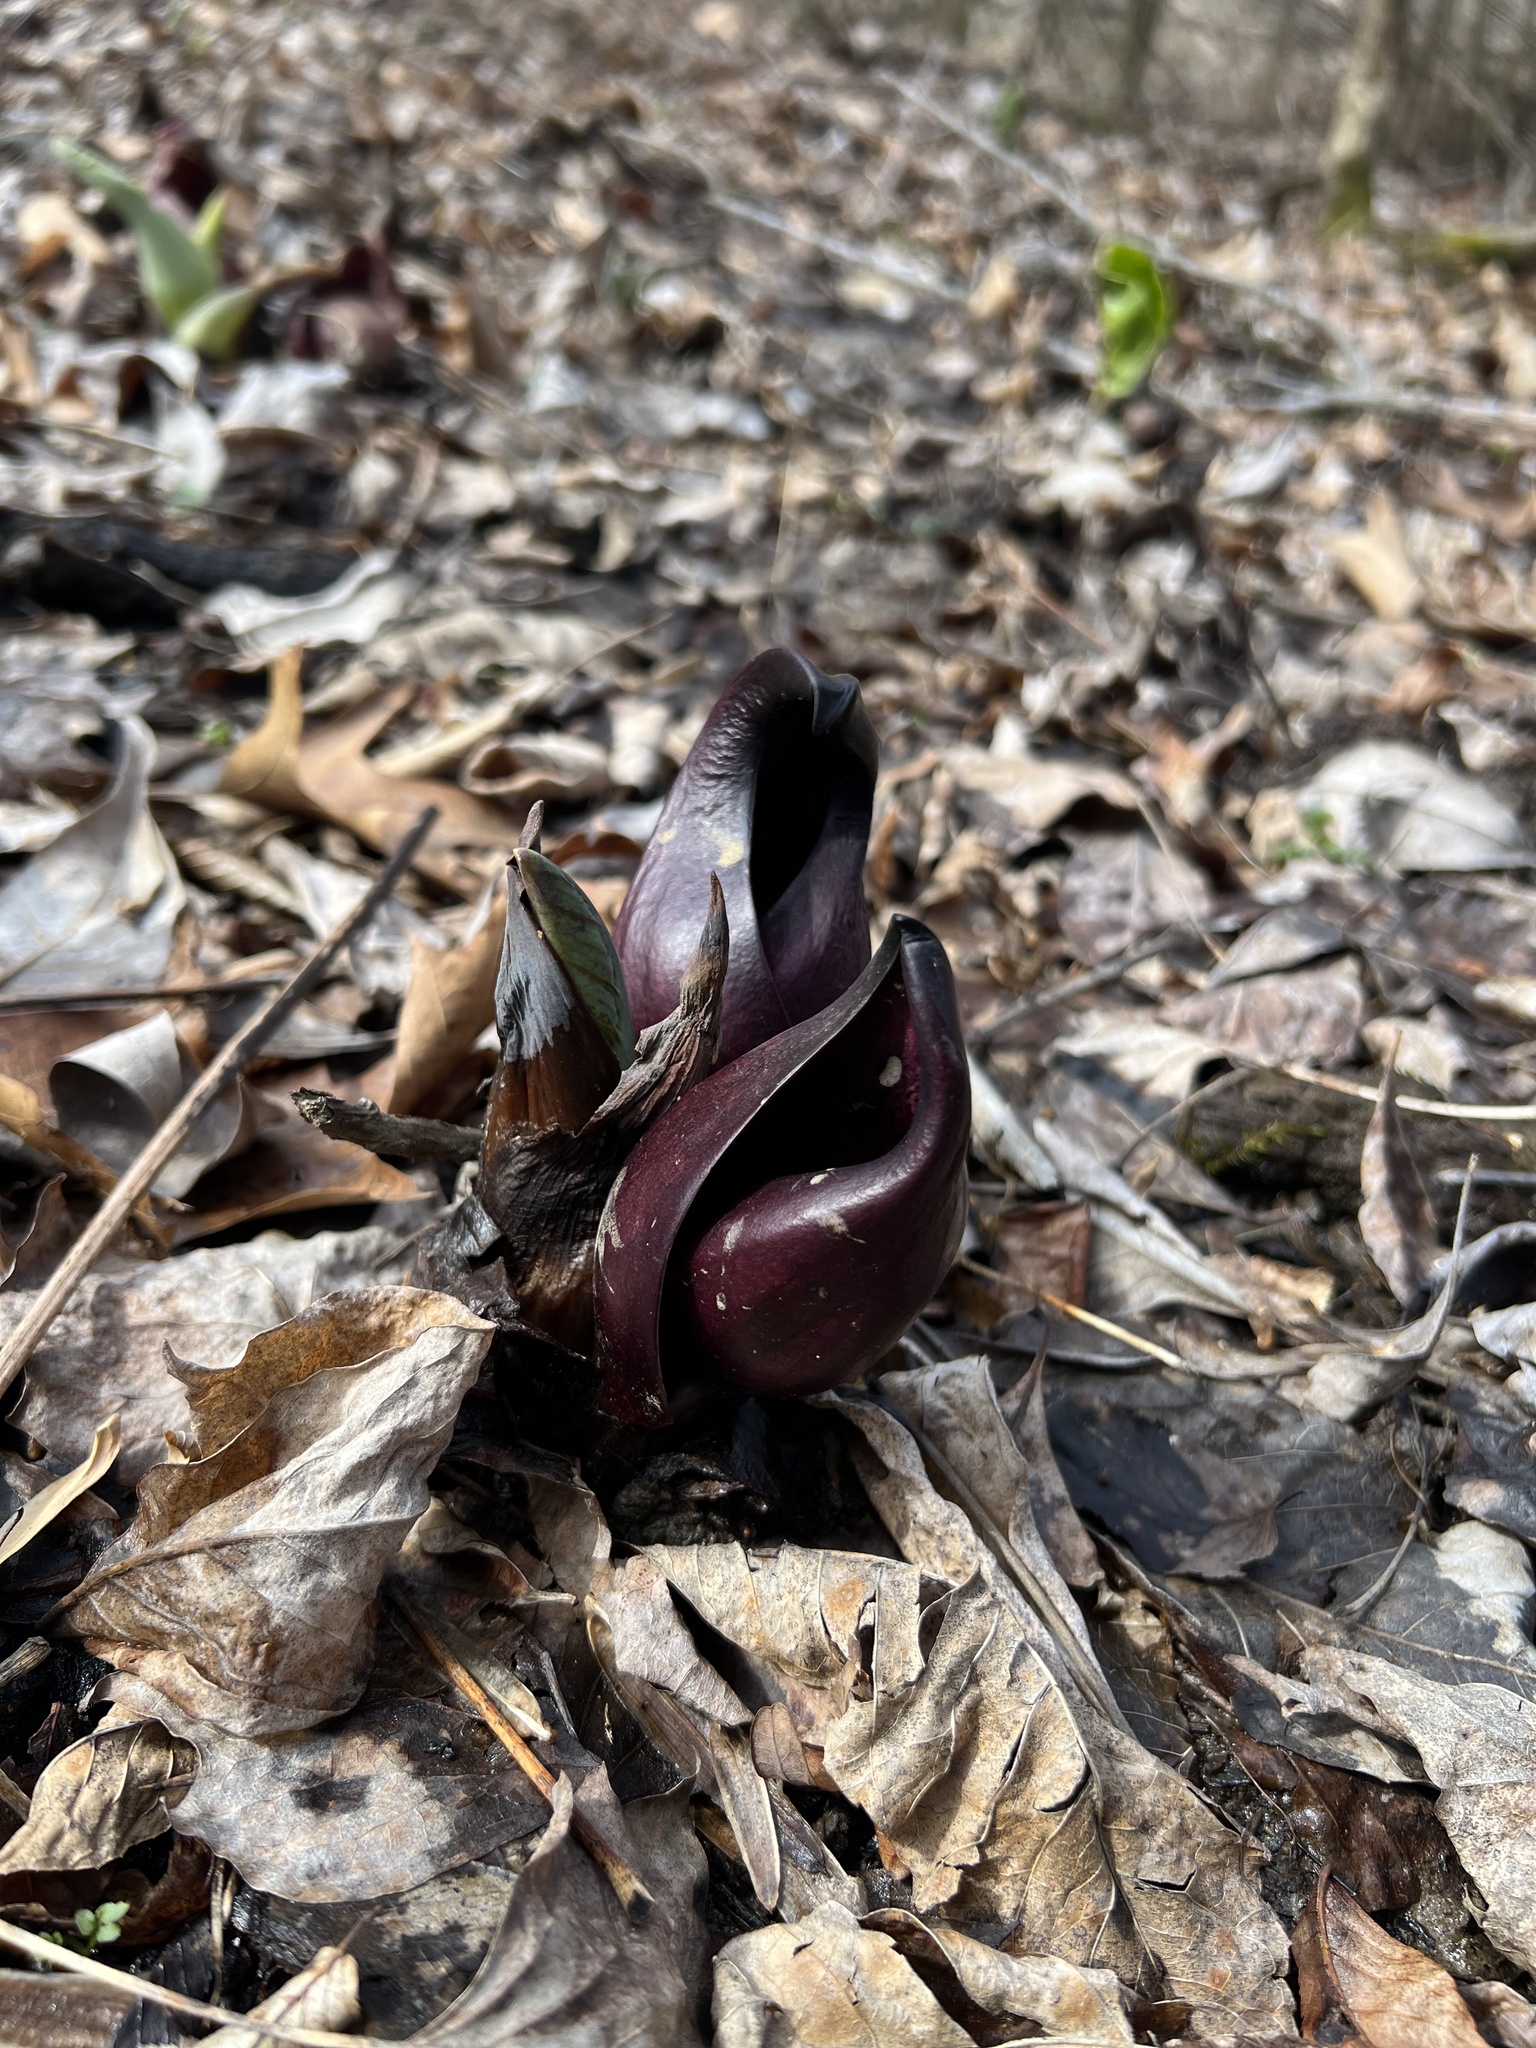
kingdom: Plantae
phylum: Tracheophyta
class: Liliopsida
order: Alismatales
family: Araceae
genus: Symplocarpus
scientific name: Symplocarpus foetidus
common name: Eastern skunk cabbage
